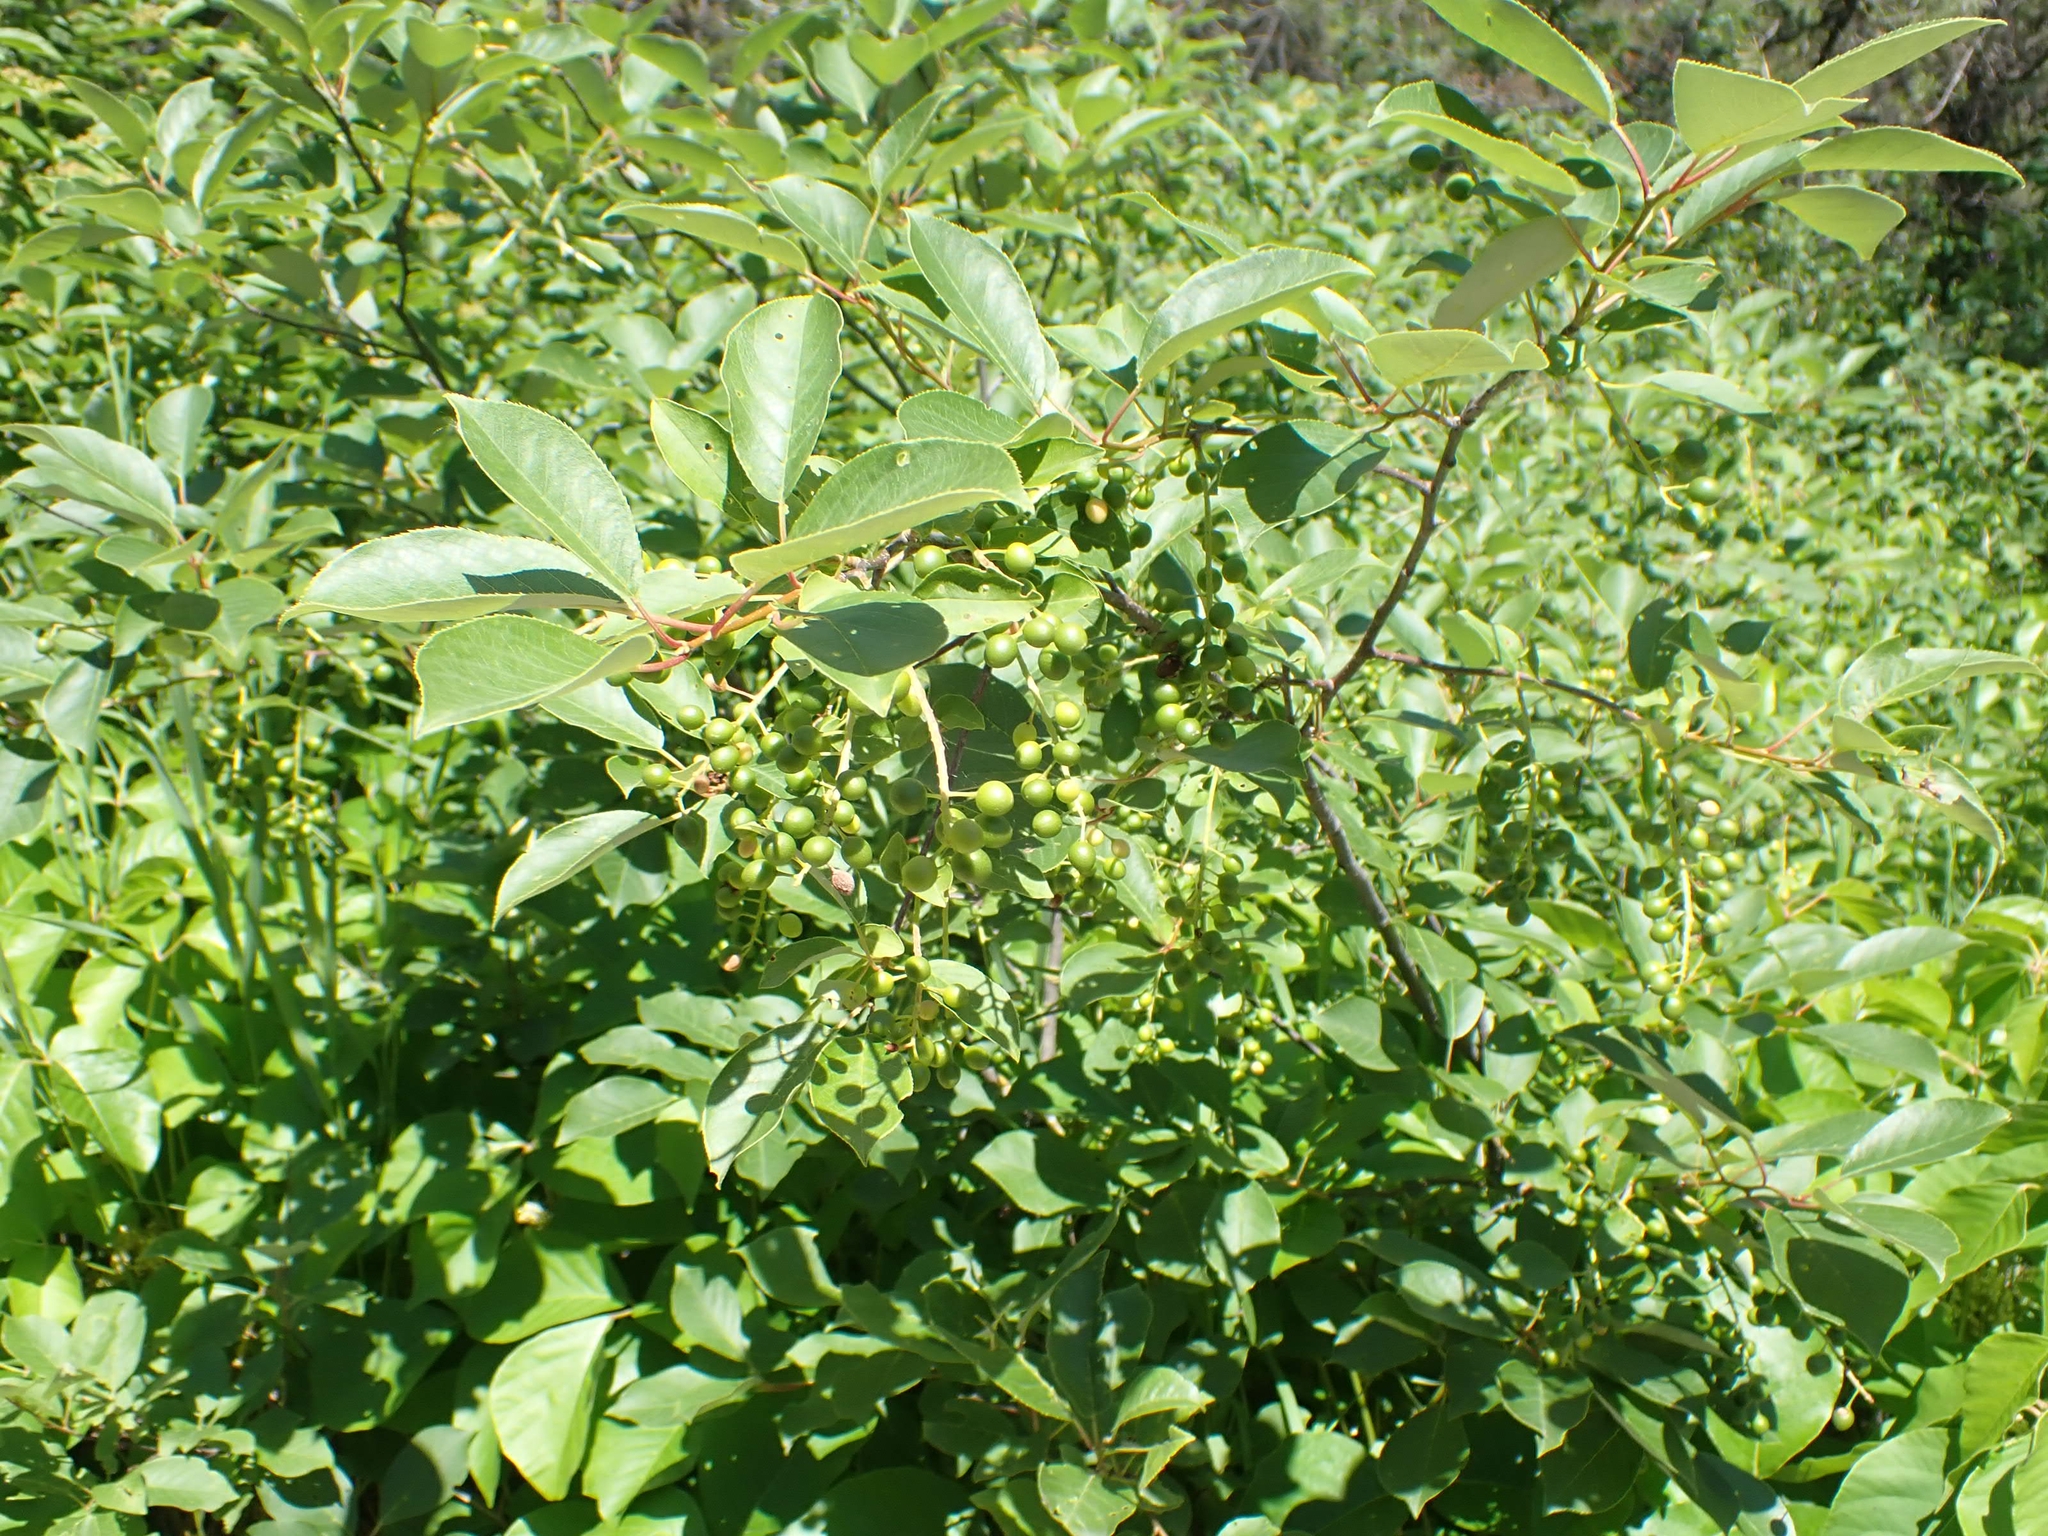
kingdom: Plantae
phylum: Tracheophyta
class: Magnoliopsida
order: Rosales
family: Rosaceae
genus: Prunus
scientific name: Prunus virginiana
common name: Chokecherry
